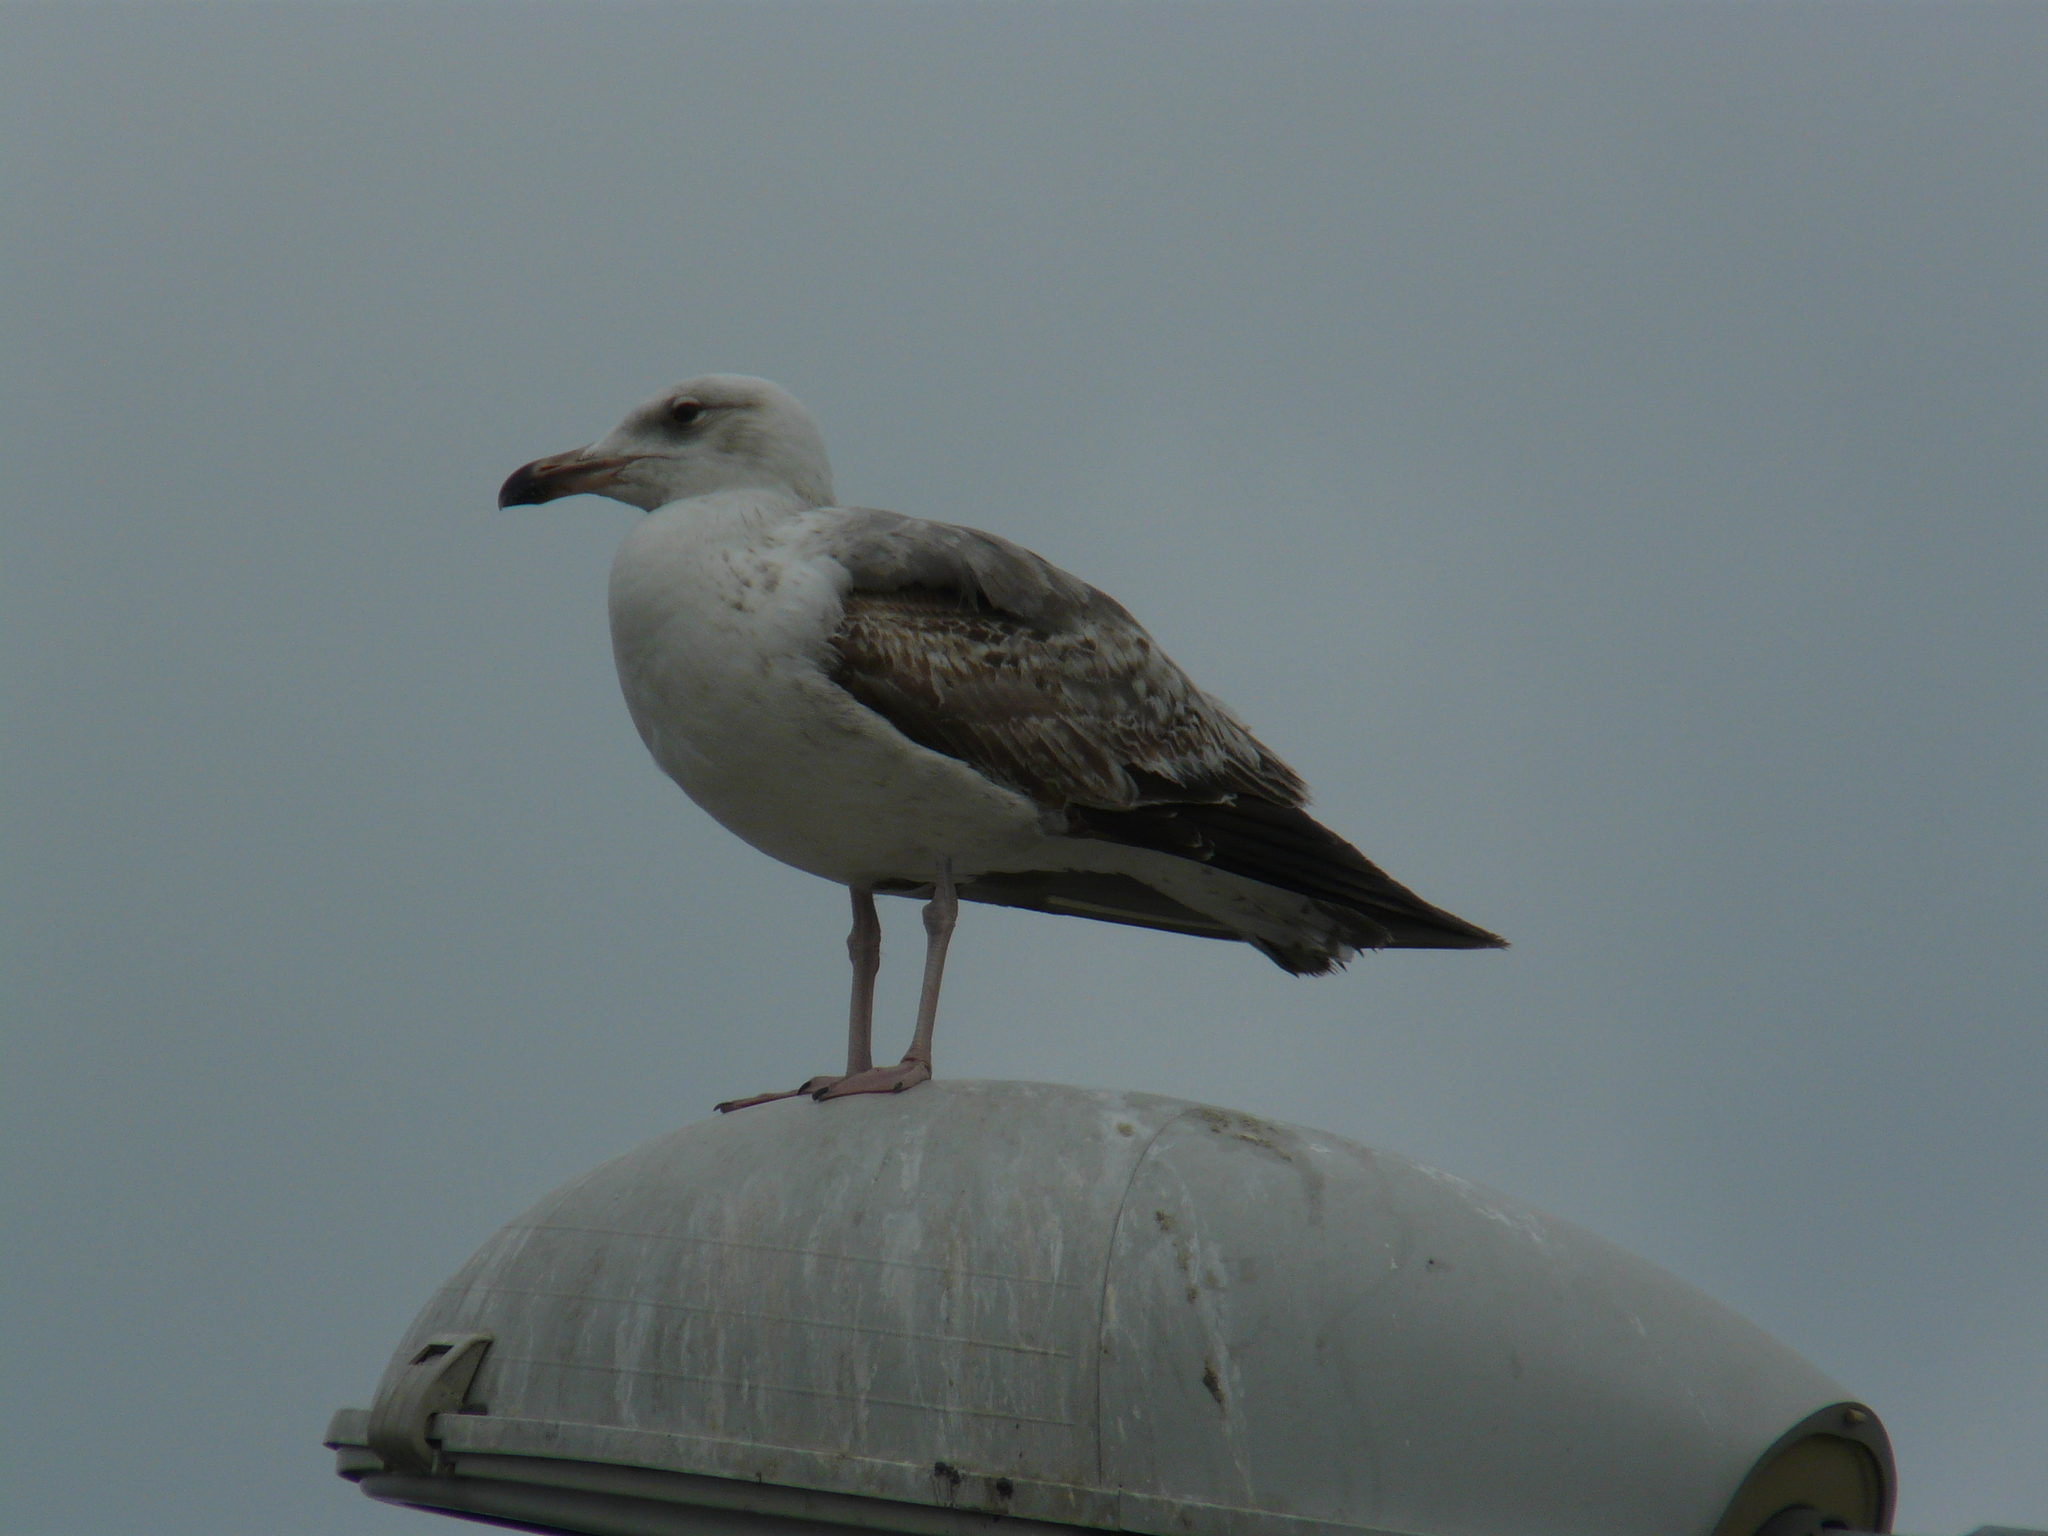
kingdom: Animalia
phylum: Chordata
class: Aves
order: Charadriiformes
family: Laridae
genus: Larus
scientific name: Larus michahellis
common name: Yellow-legged gull
